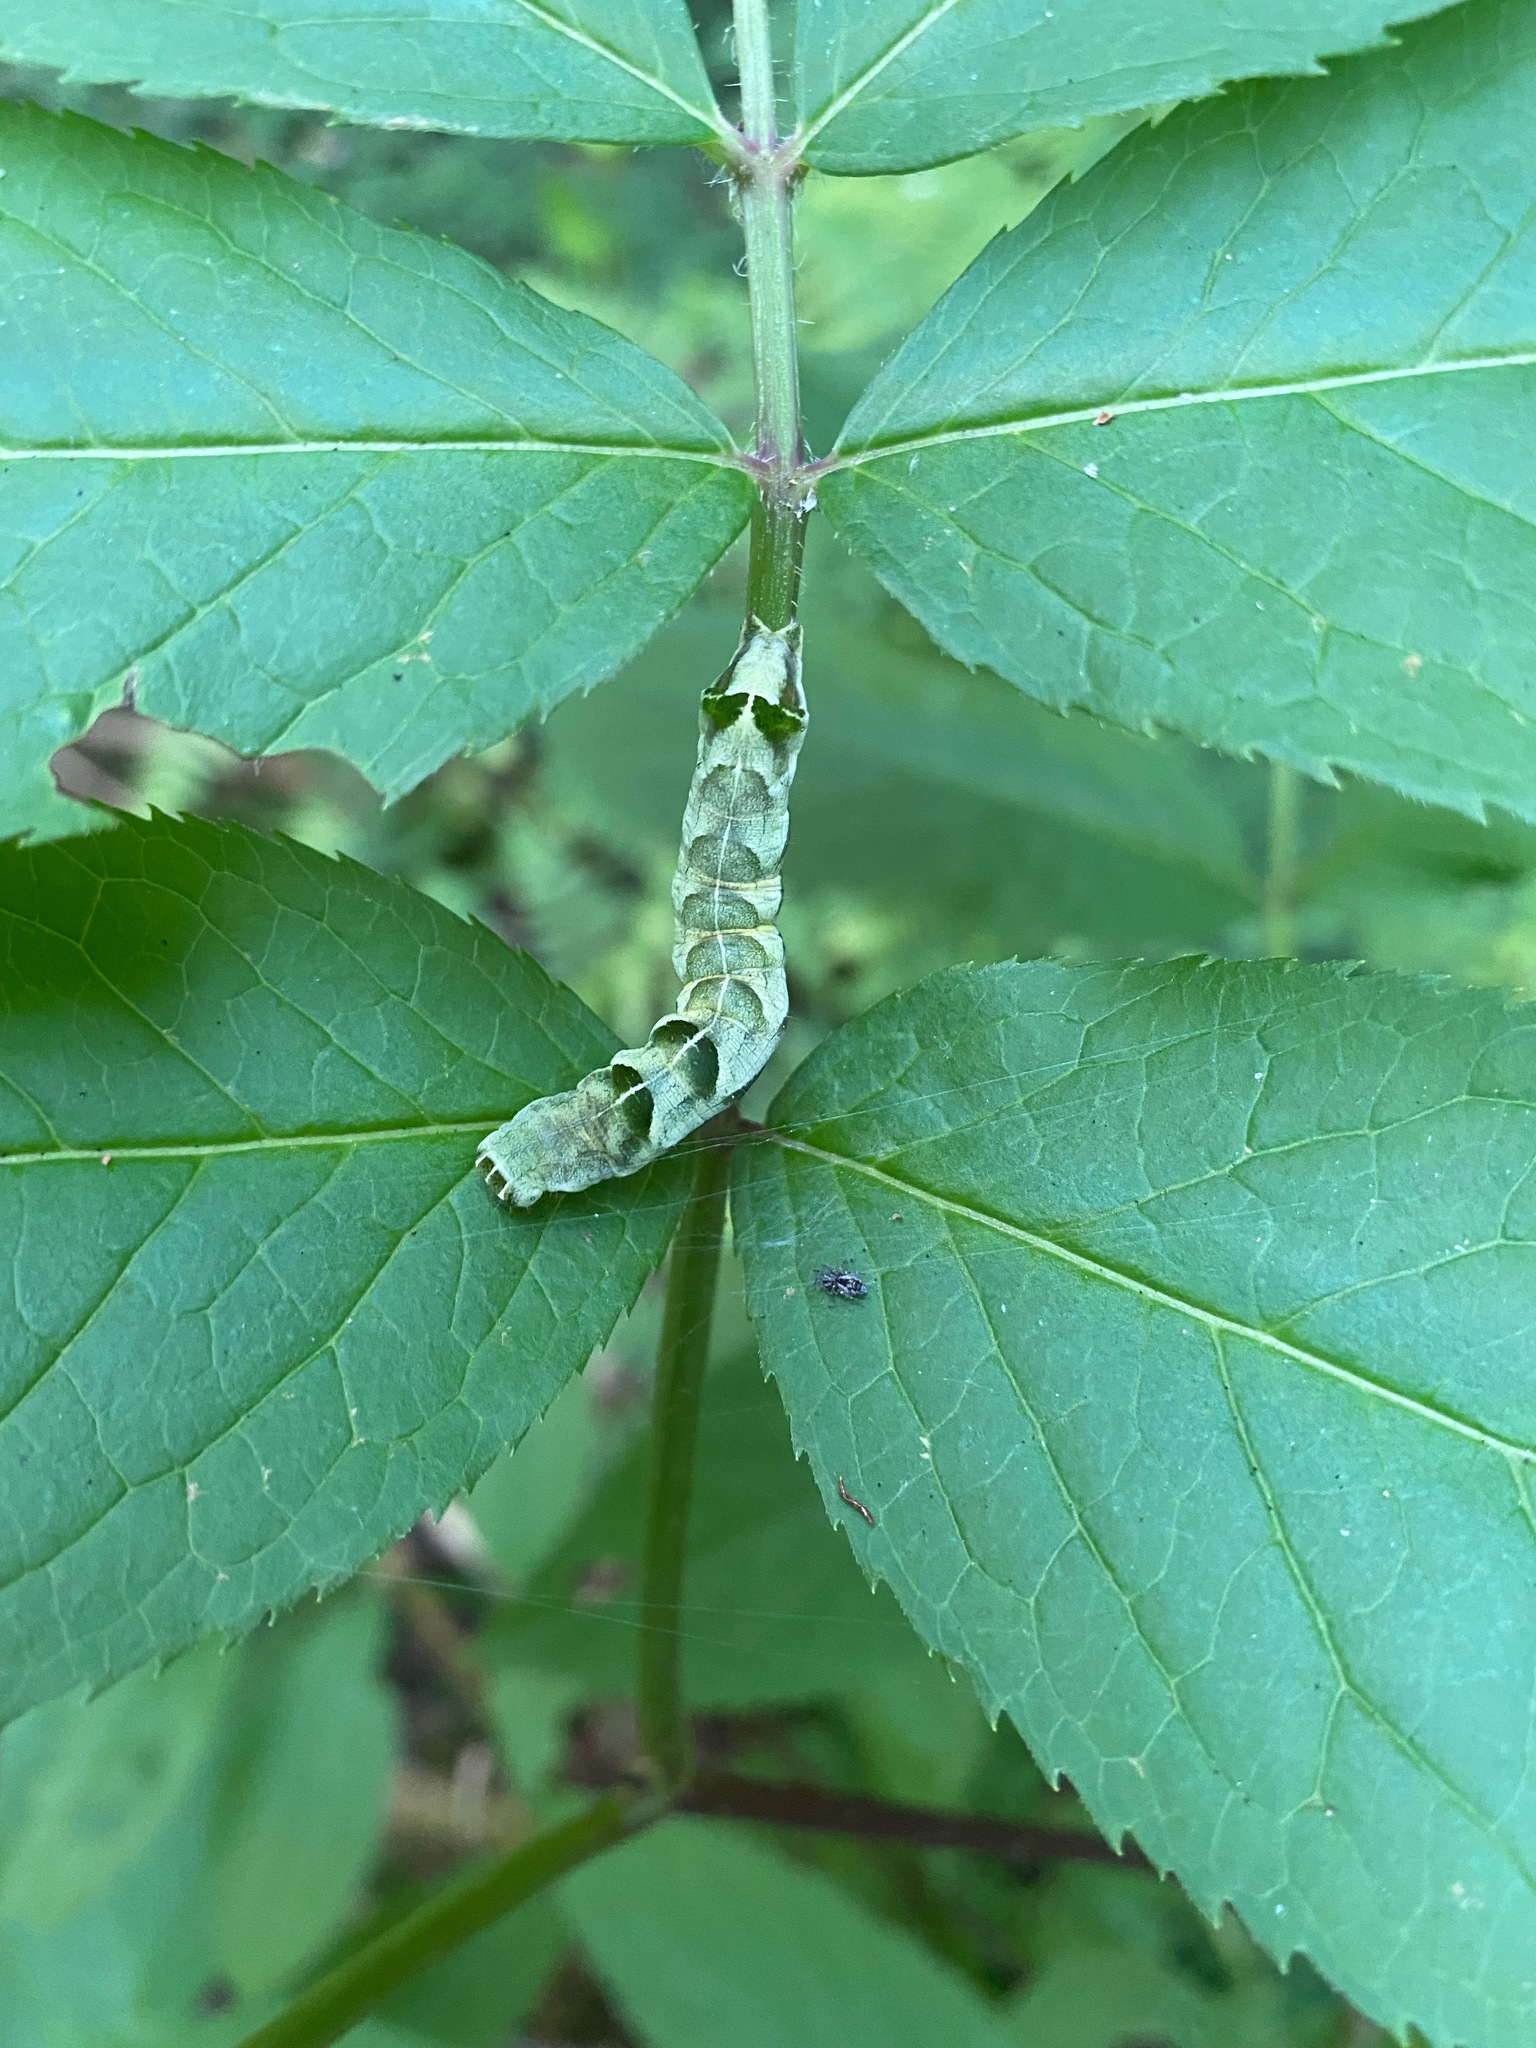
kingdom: Animalia
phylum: Arthropoda
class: Insecta
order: Lepidoptera
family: Noctuidae
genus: Melanchra
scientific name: Melanchra adjuncta
